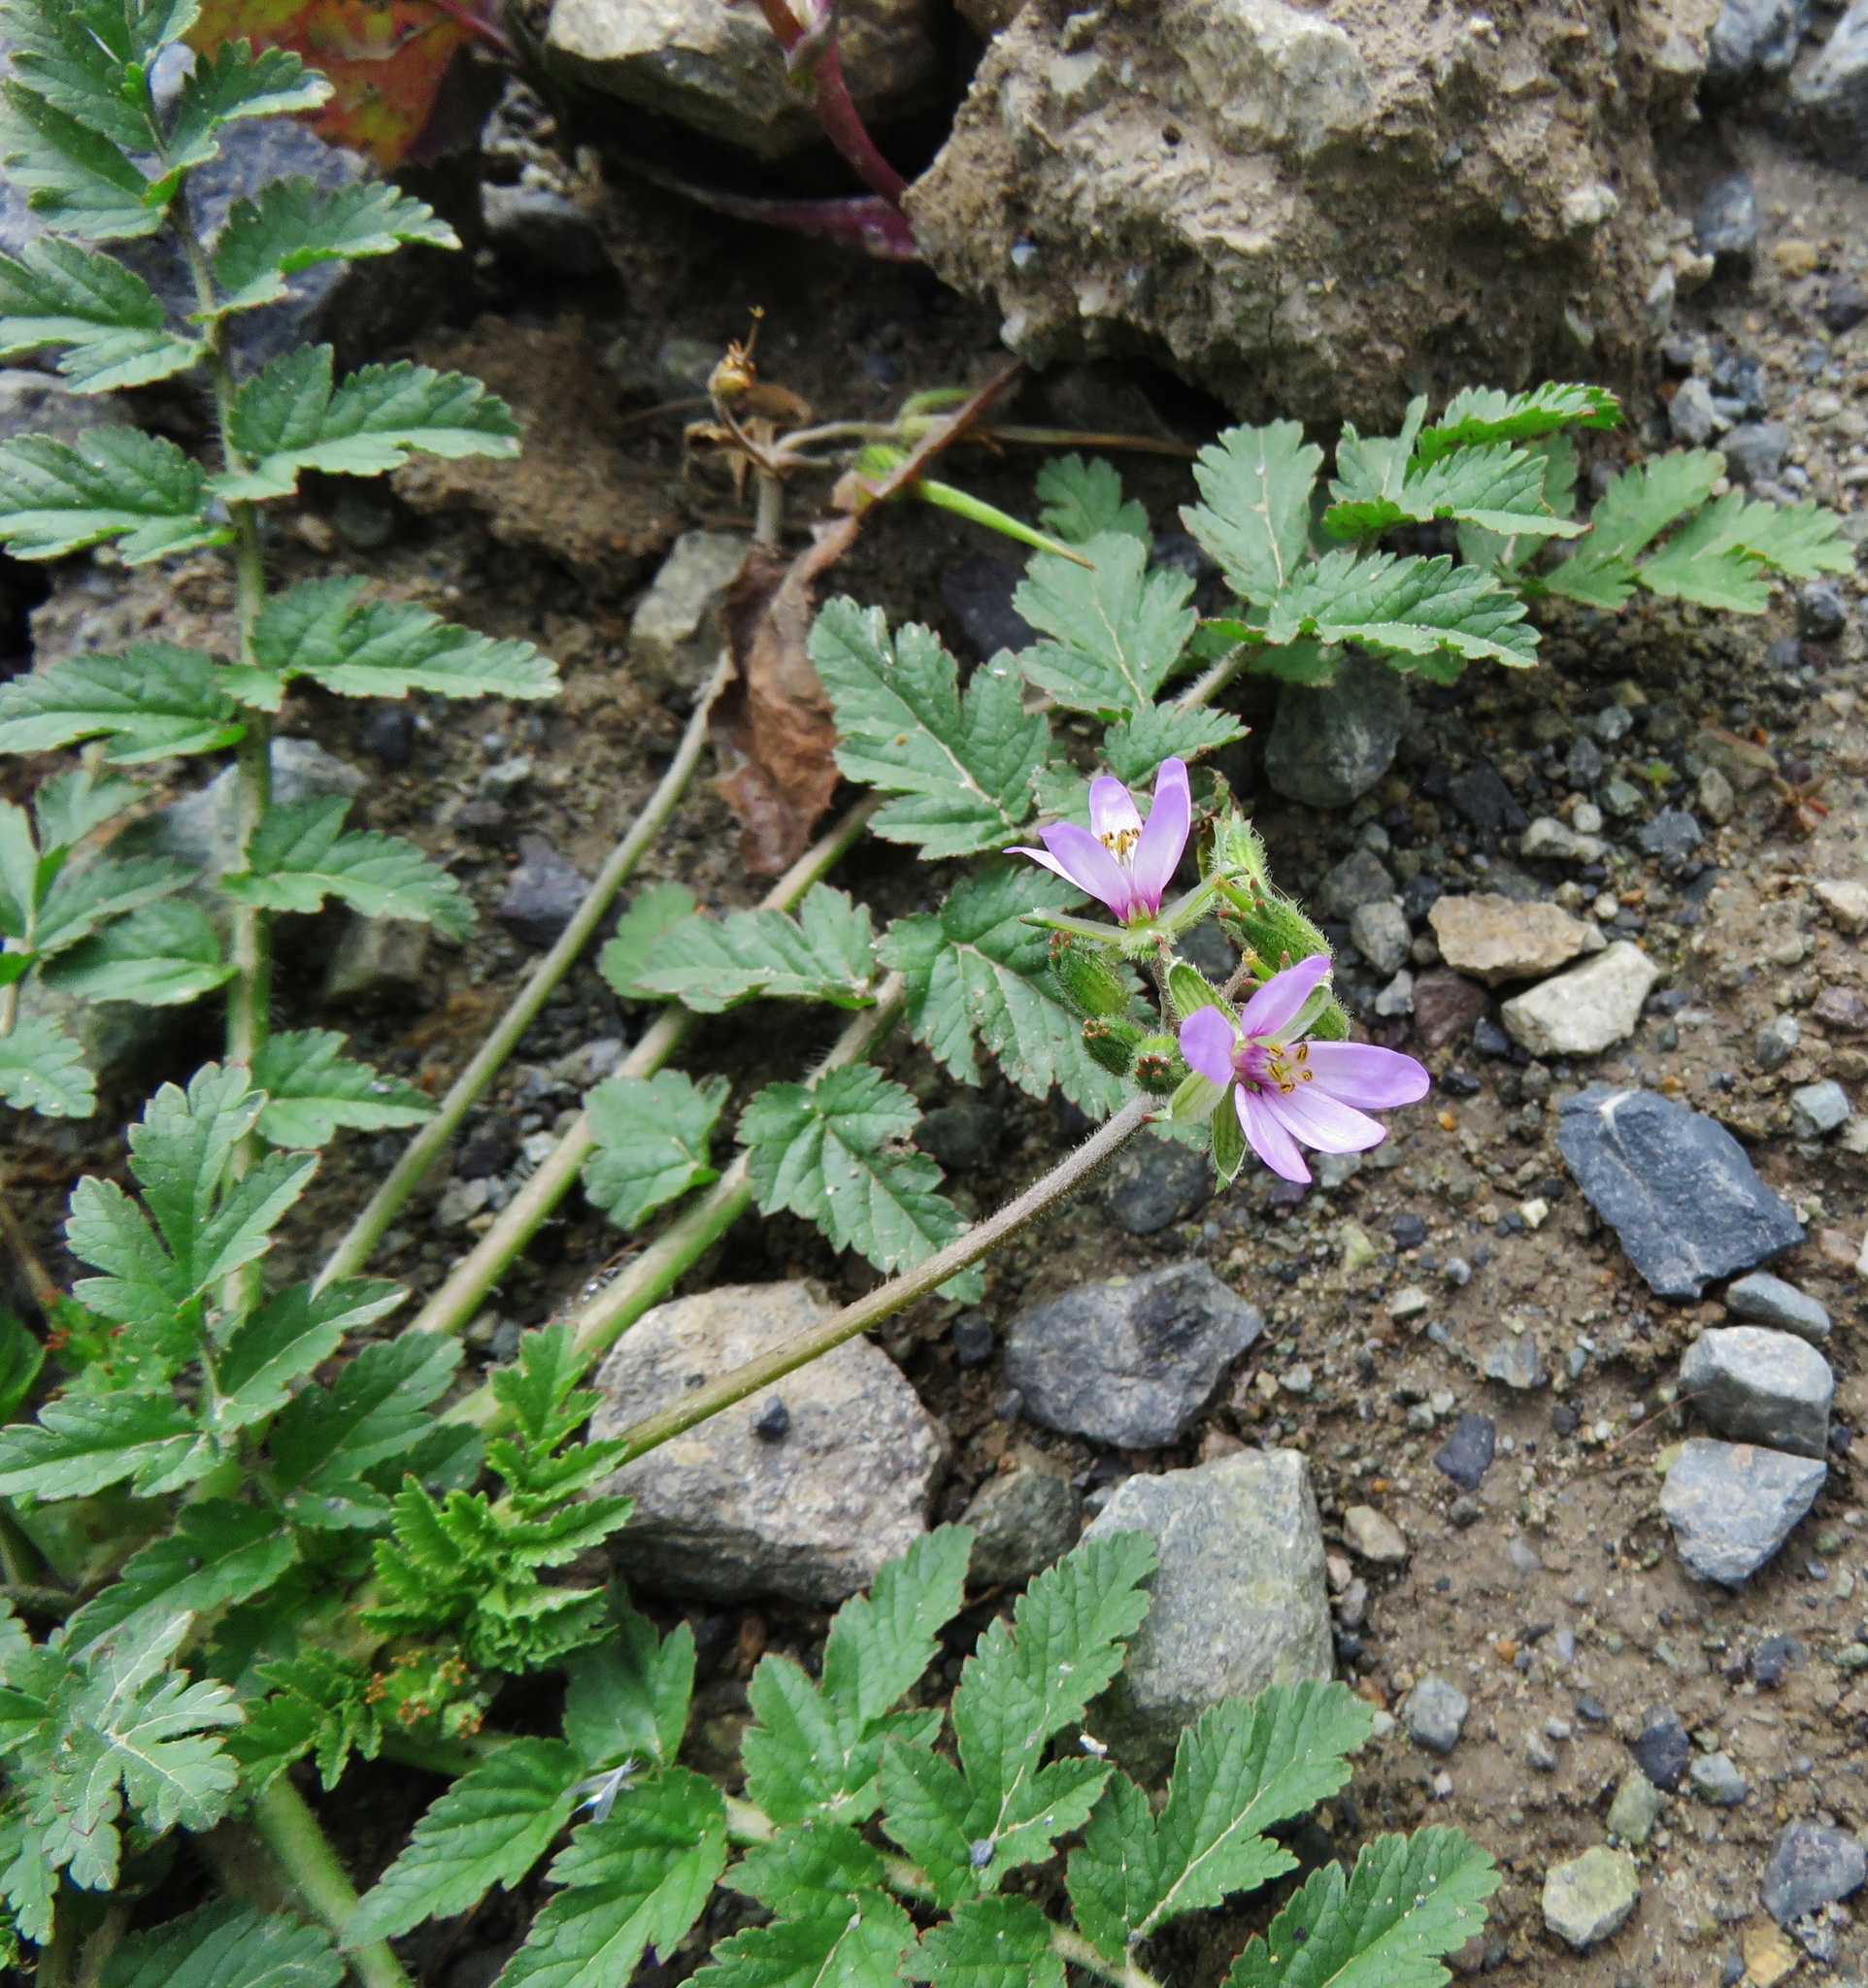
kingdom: Plantae
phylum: Tracheophyta
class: Magnoliopsida
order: Geraniales
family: Geraniaceae
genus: Erodium
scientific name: Erodium moschatum
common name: Musk stork's-bill
